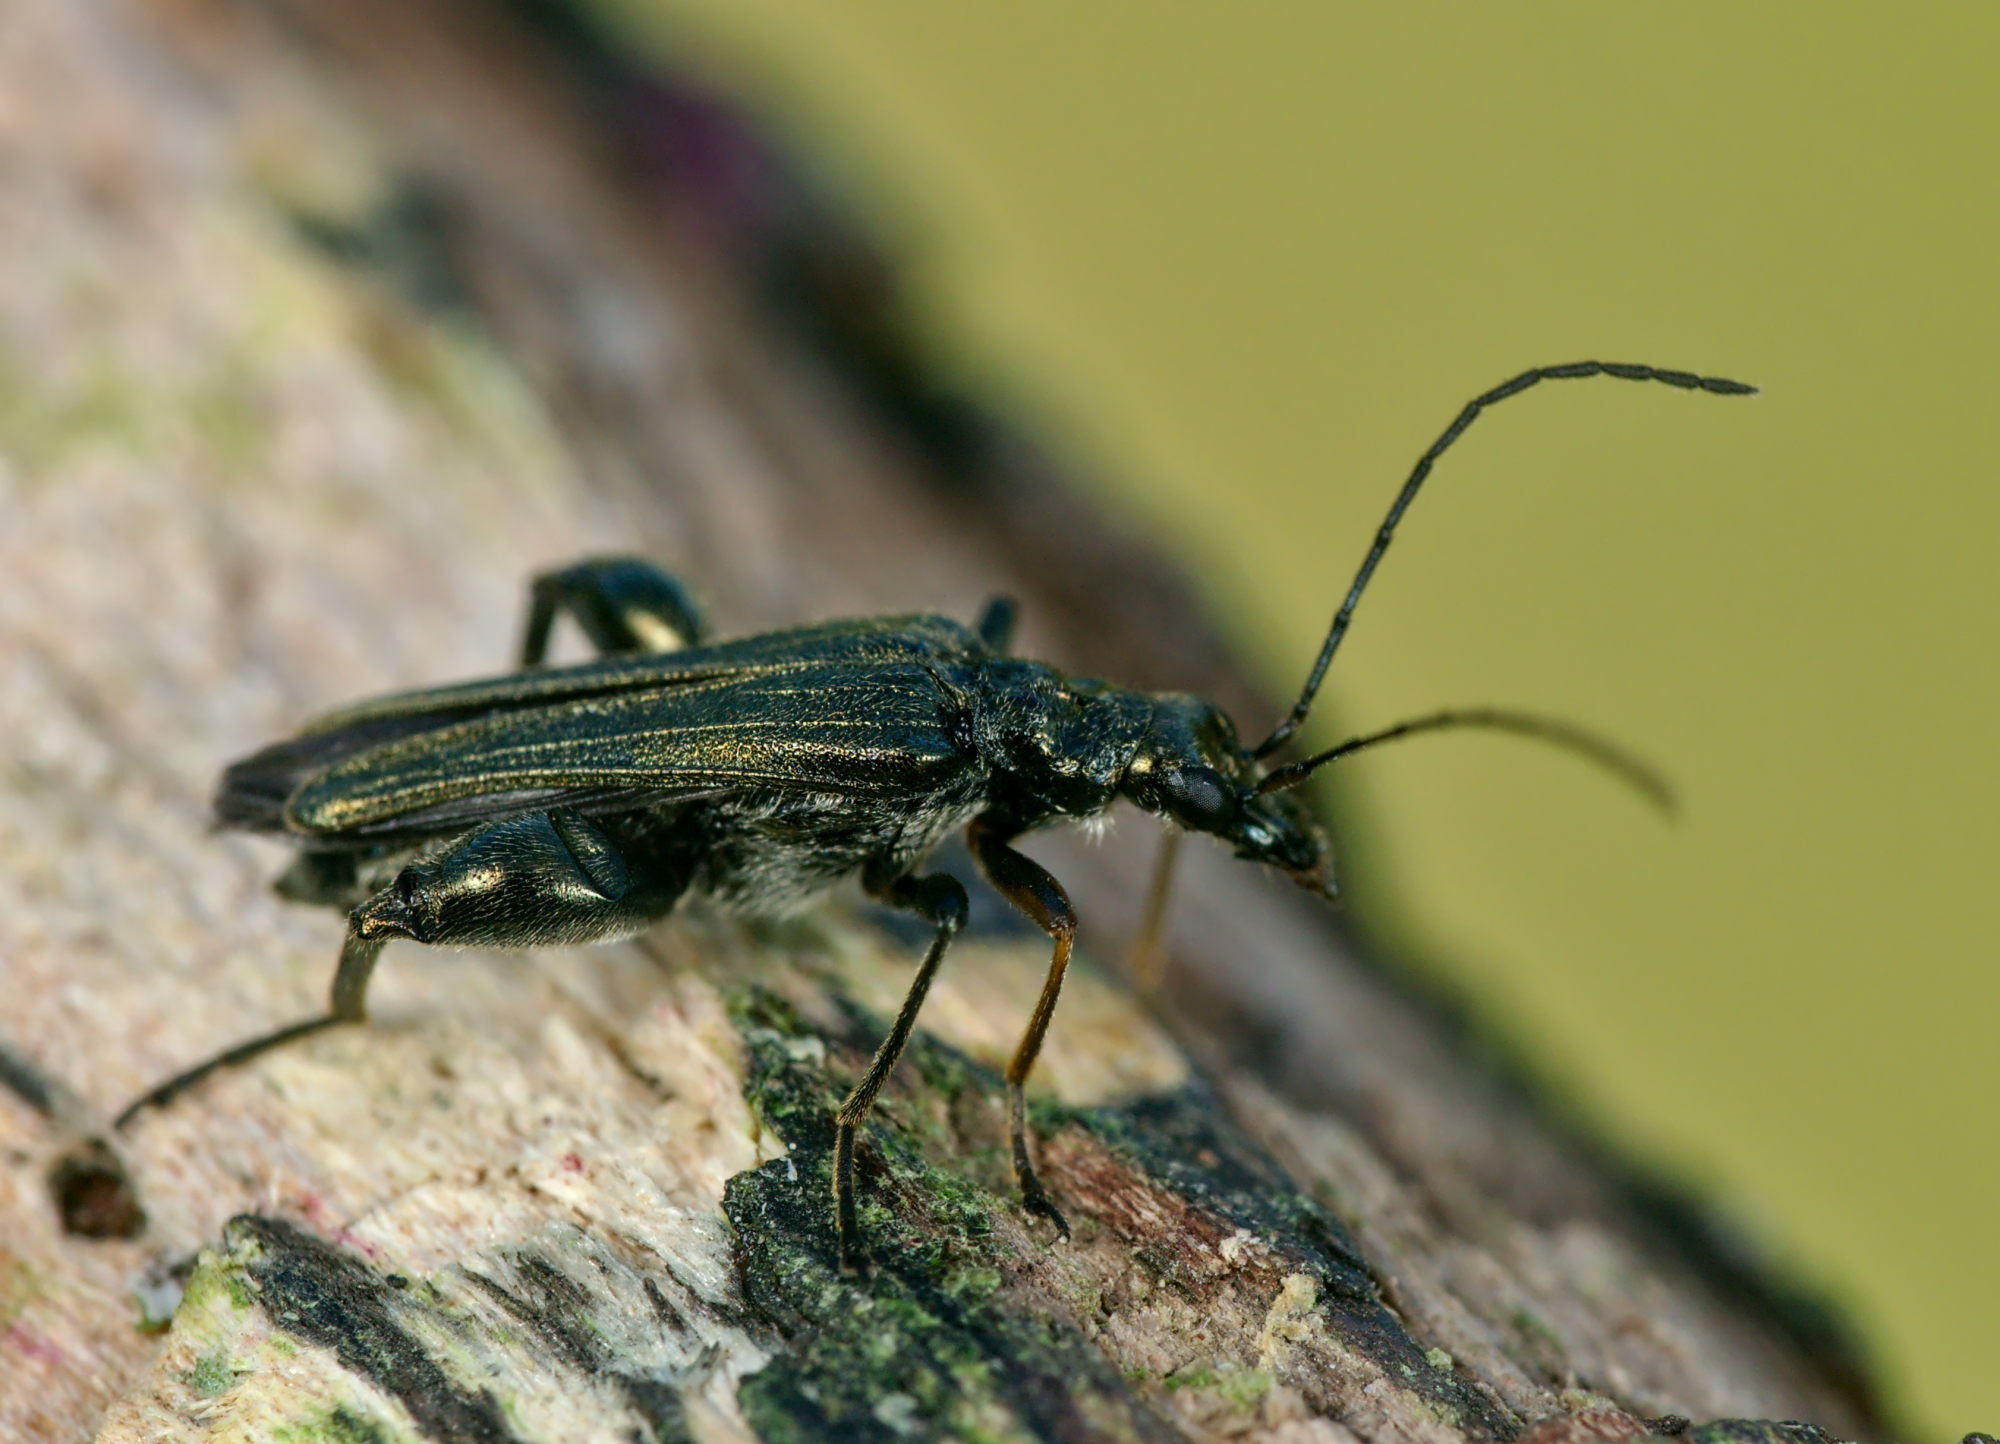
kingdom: Animalia
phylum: Arthropoda
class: Insecta
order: Coleoptera
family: Oedemeridae
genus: Oedemera
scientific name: Oedemera flavipes
